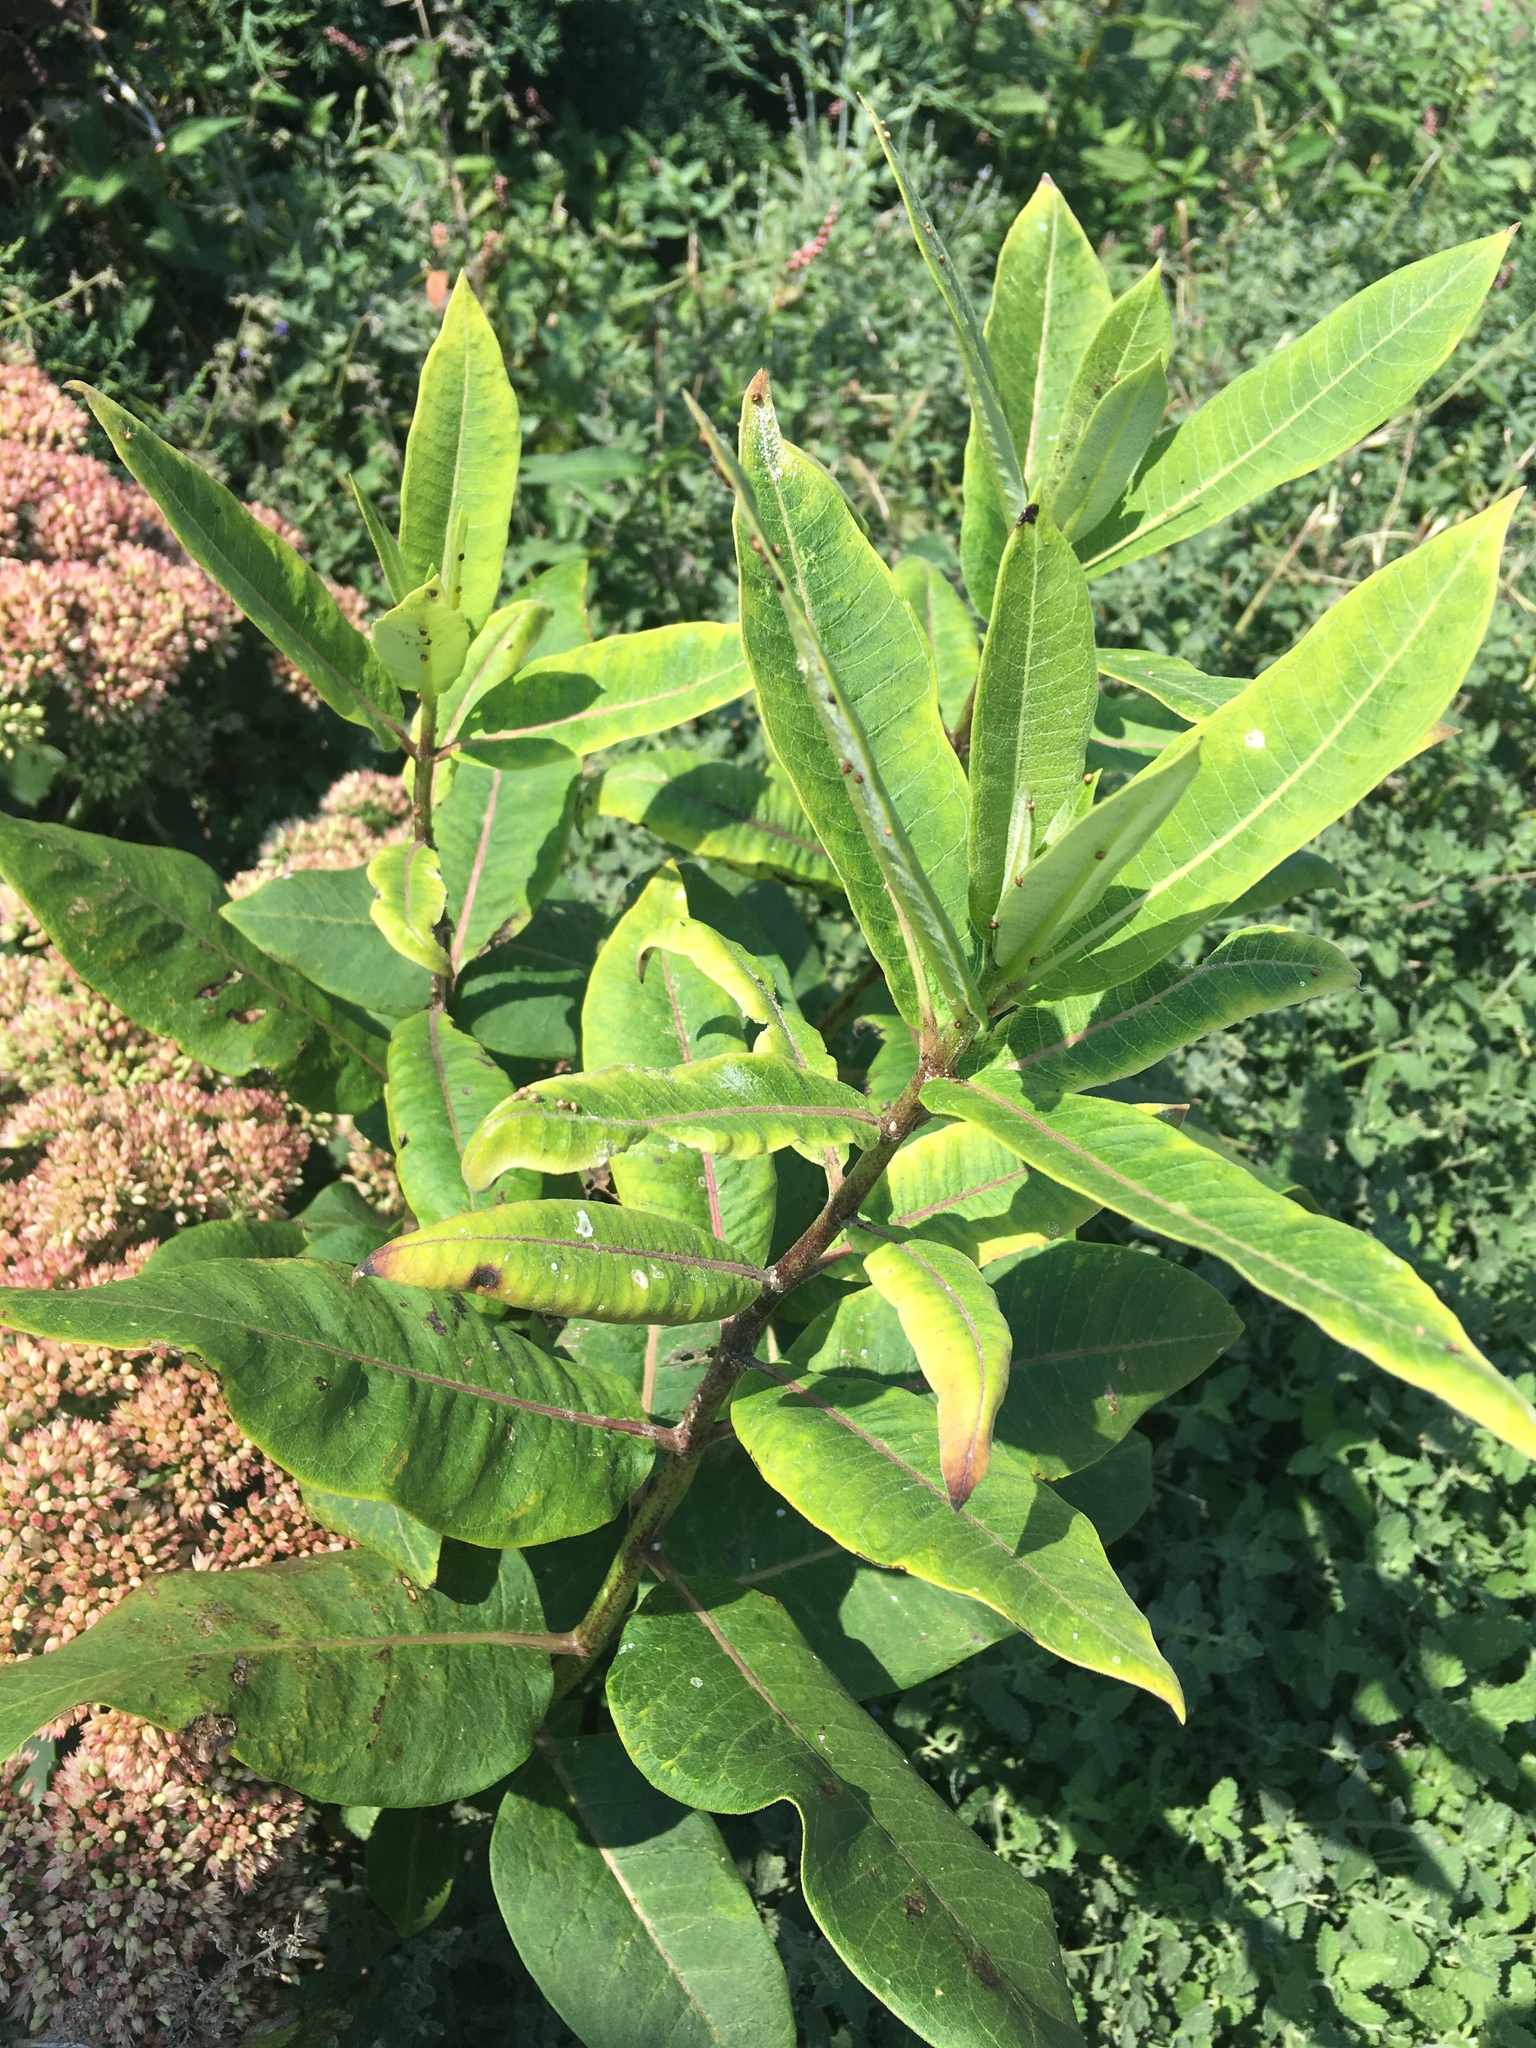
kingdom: Plantae
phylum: Tracheophyta
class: Magnoliopsida
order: Gentianales
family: Apocynaceae
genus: Asclepias
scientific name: Asclepias syriaca
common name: Common milkweed
